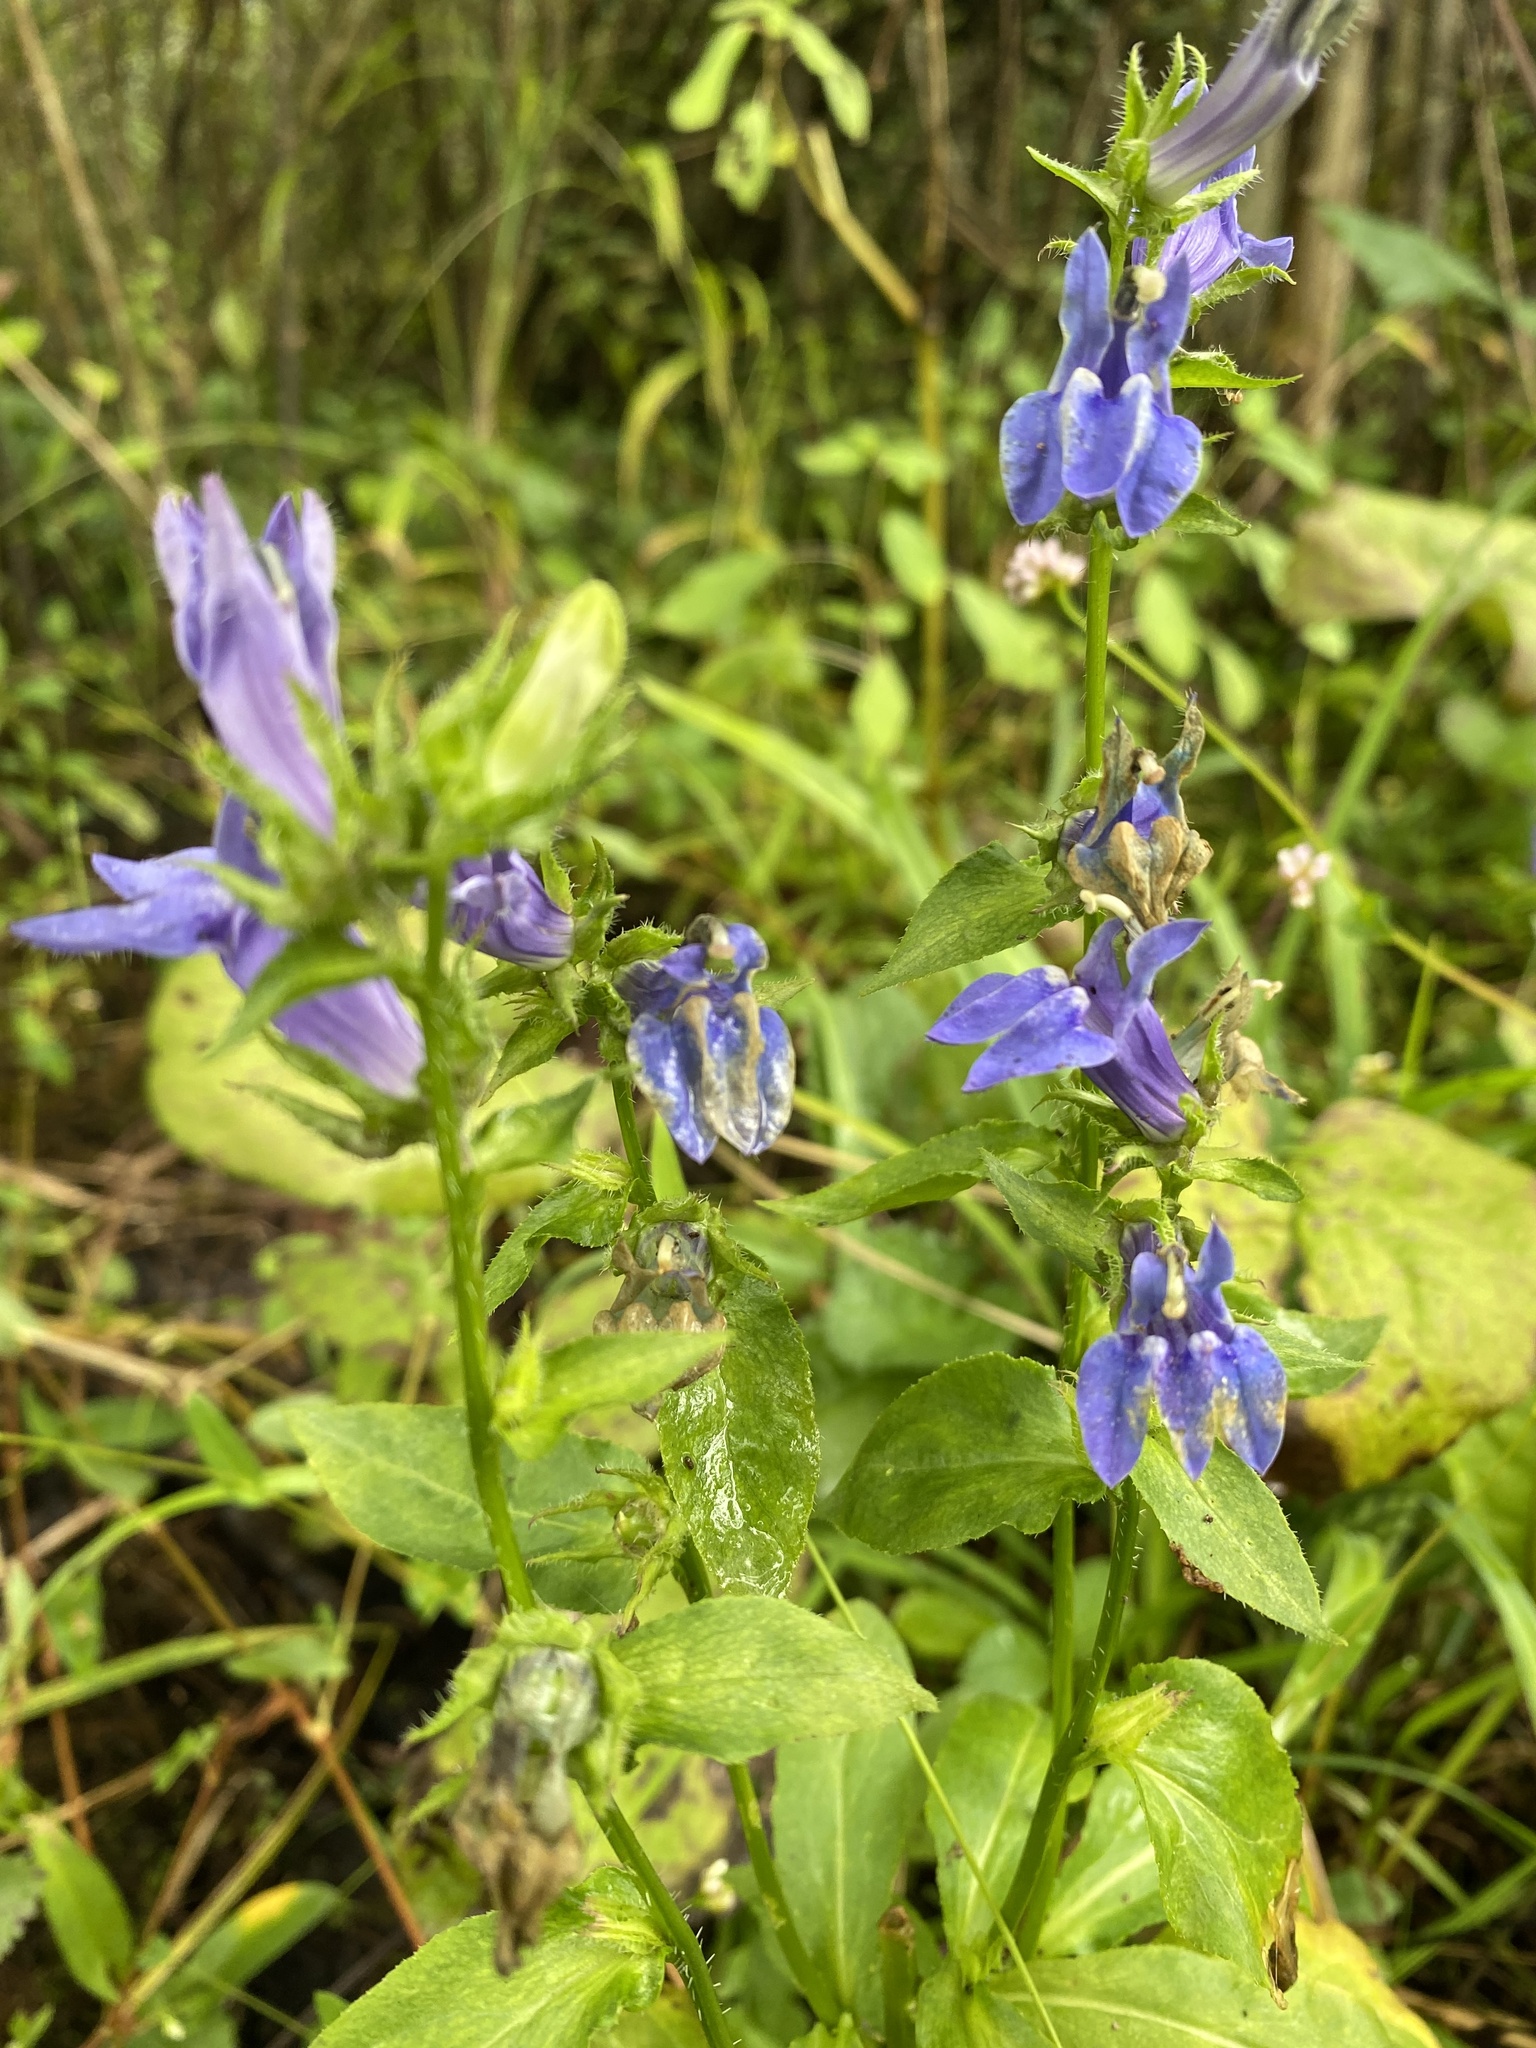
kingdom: Plantae
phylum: Tracheophyta
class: Magnoliopsida
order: Asterales
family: Campanulaceae
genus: Lobelia
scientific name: Lobelia siphilitica
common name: Great lobelia
